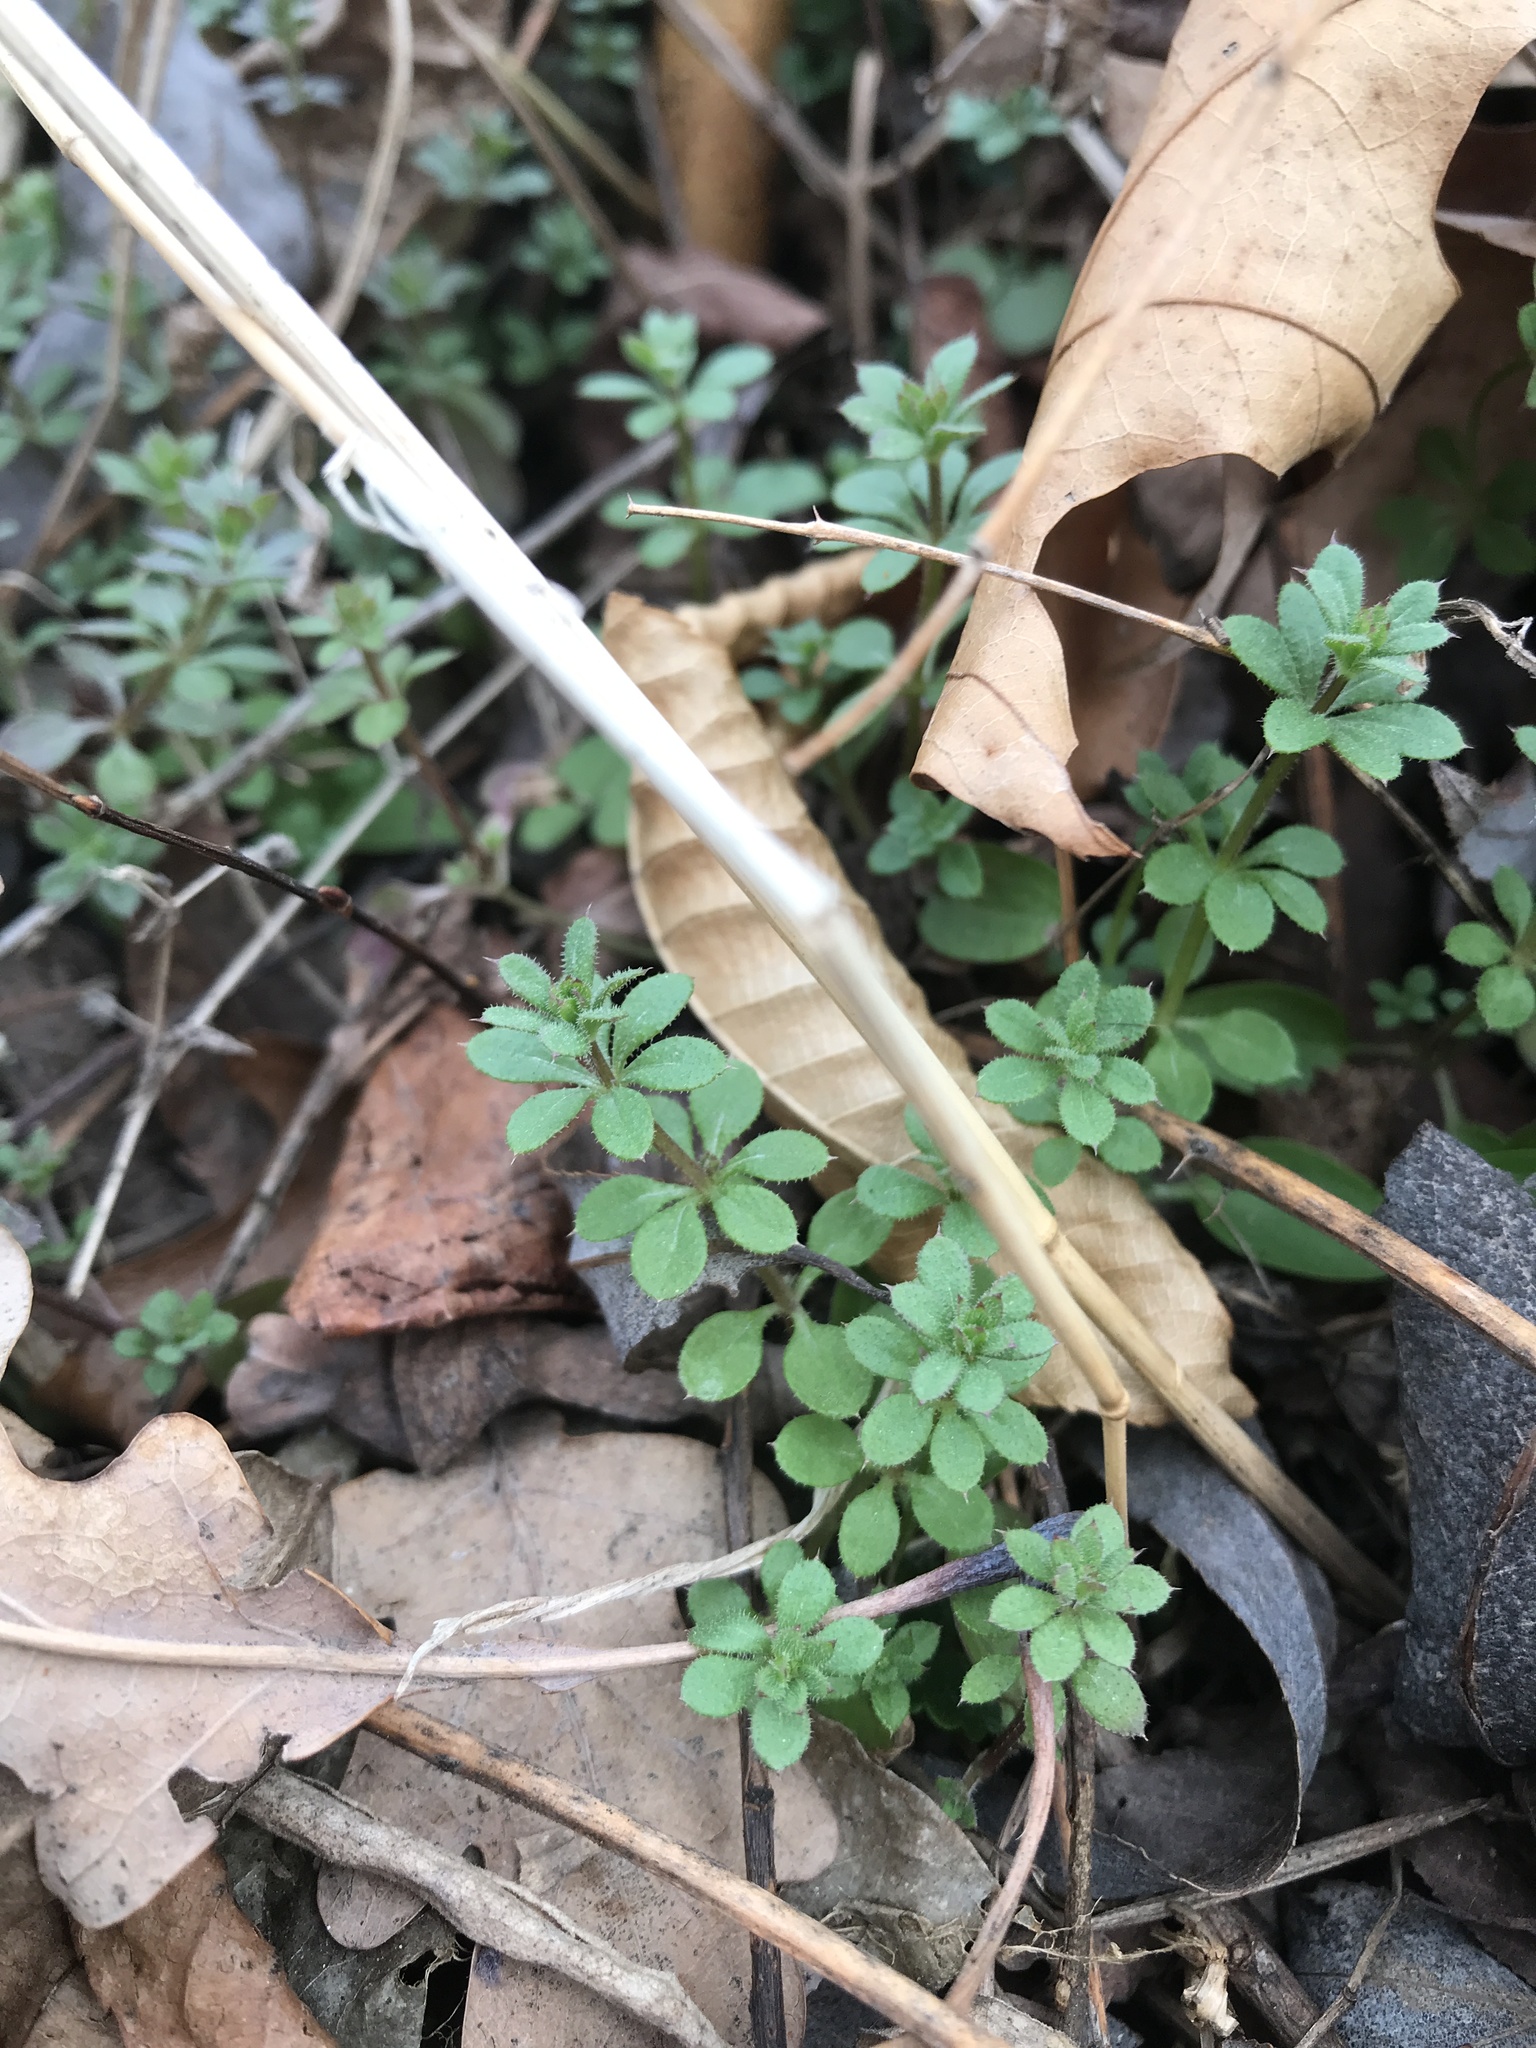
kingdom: Plantae
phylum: Tracheophyta
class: Magnoliopsida
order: Gentianales
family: Rubiaceae
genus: Galium
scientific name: Galium aparine
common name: Cleavers
